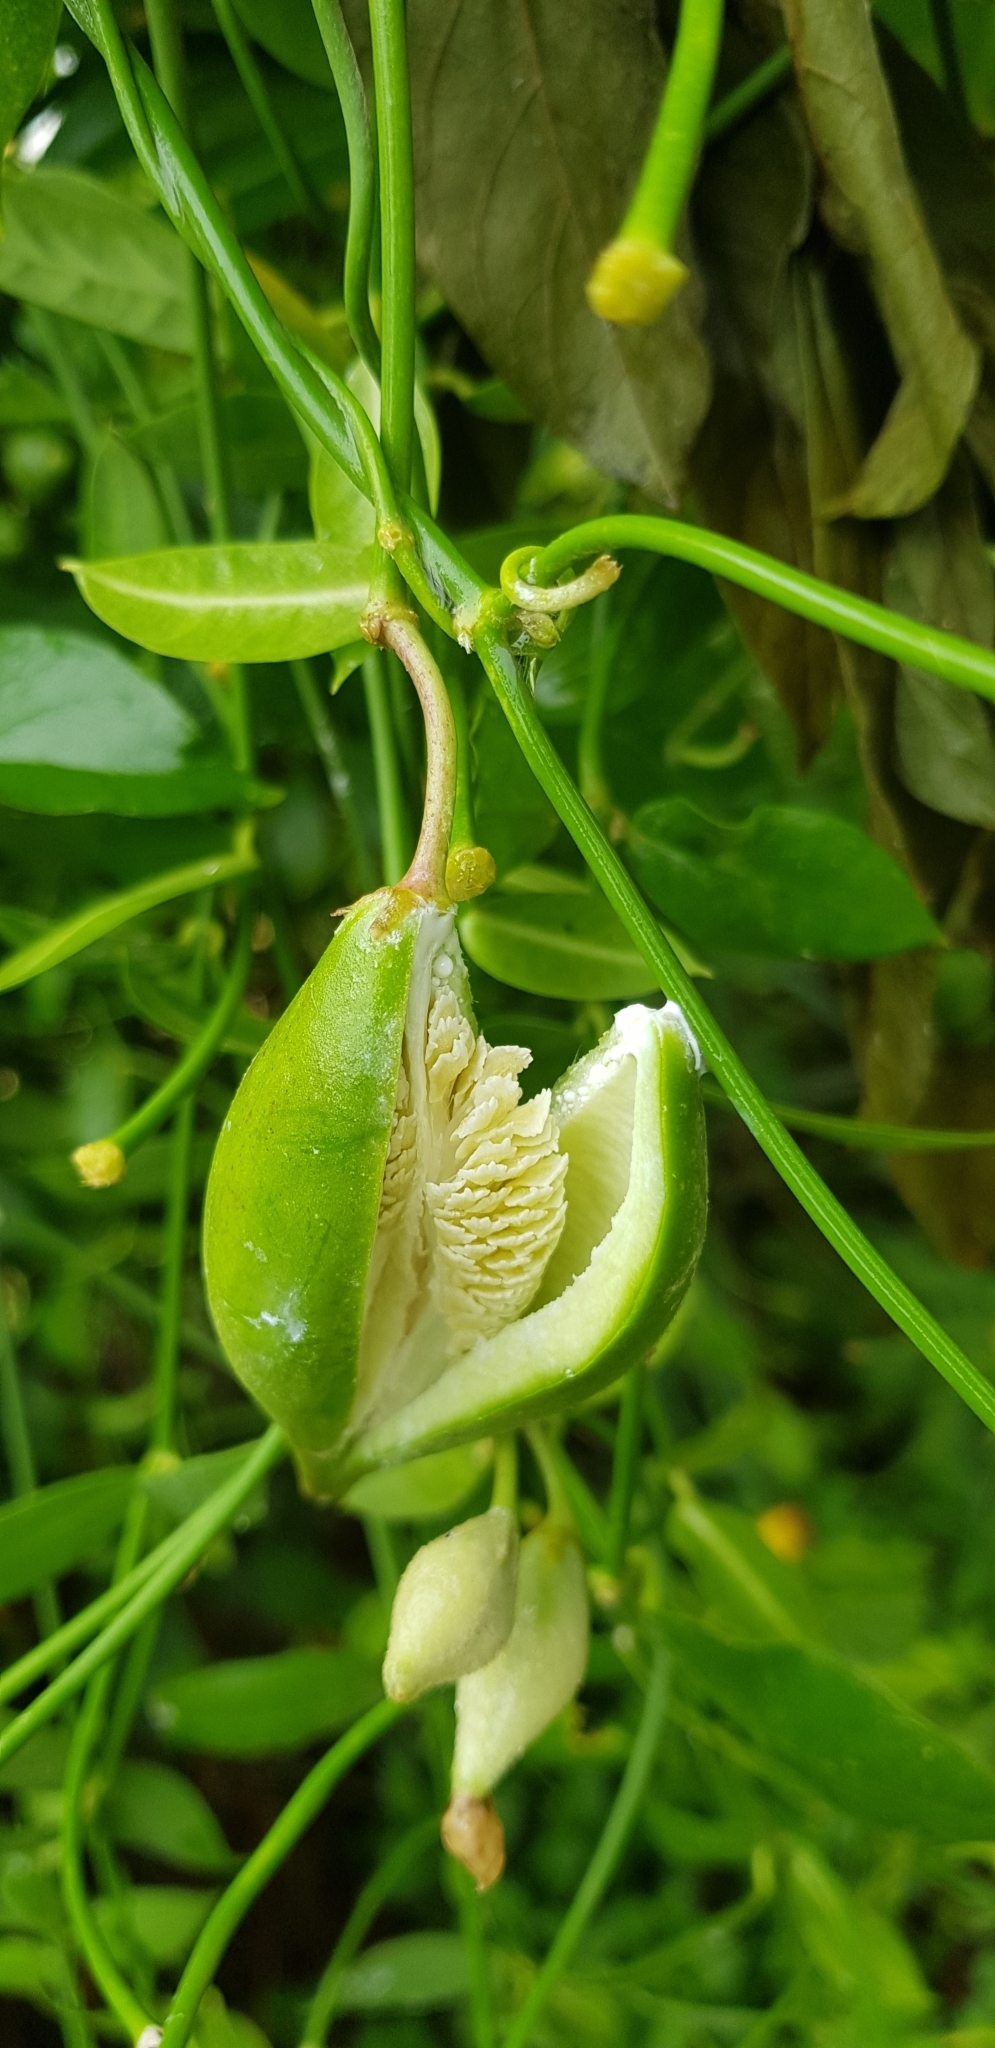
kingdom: Plantae
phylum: Tracheophyta
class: Magnoliopsida
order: Gentianales
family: Apocynaceae
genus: Funastrum
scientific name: Funastrum clausum
